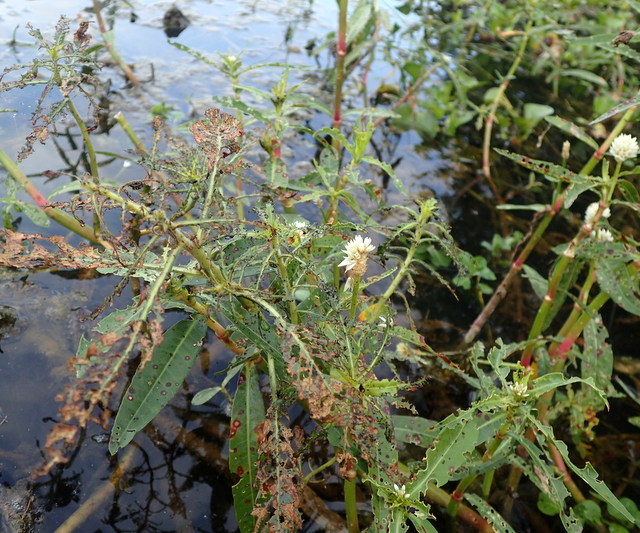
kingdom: Plantae
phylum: Tracheophyta
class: Magnoliopsida
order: Caryophyllales
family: Amaranthaceae
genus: Alternanthera
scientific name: Alternanthera philoxeroides
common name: Alligatorweed
